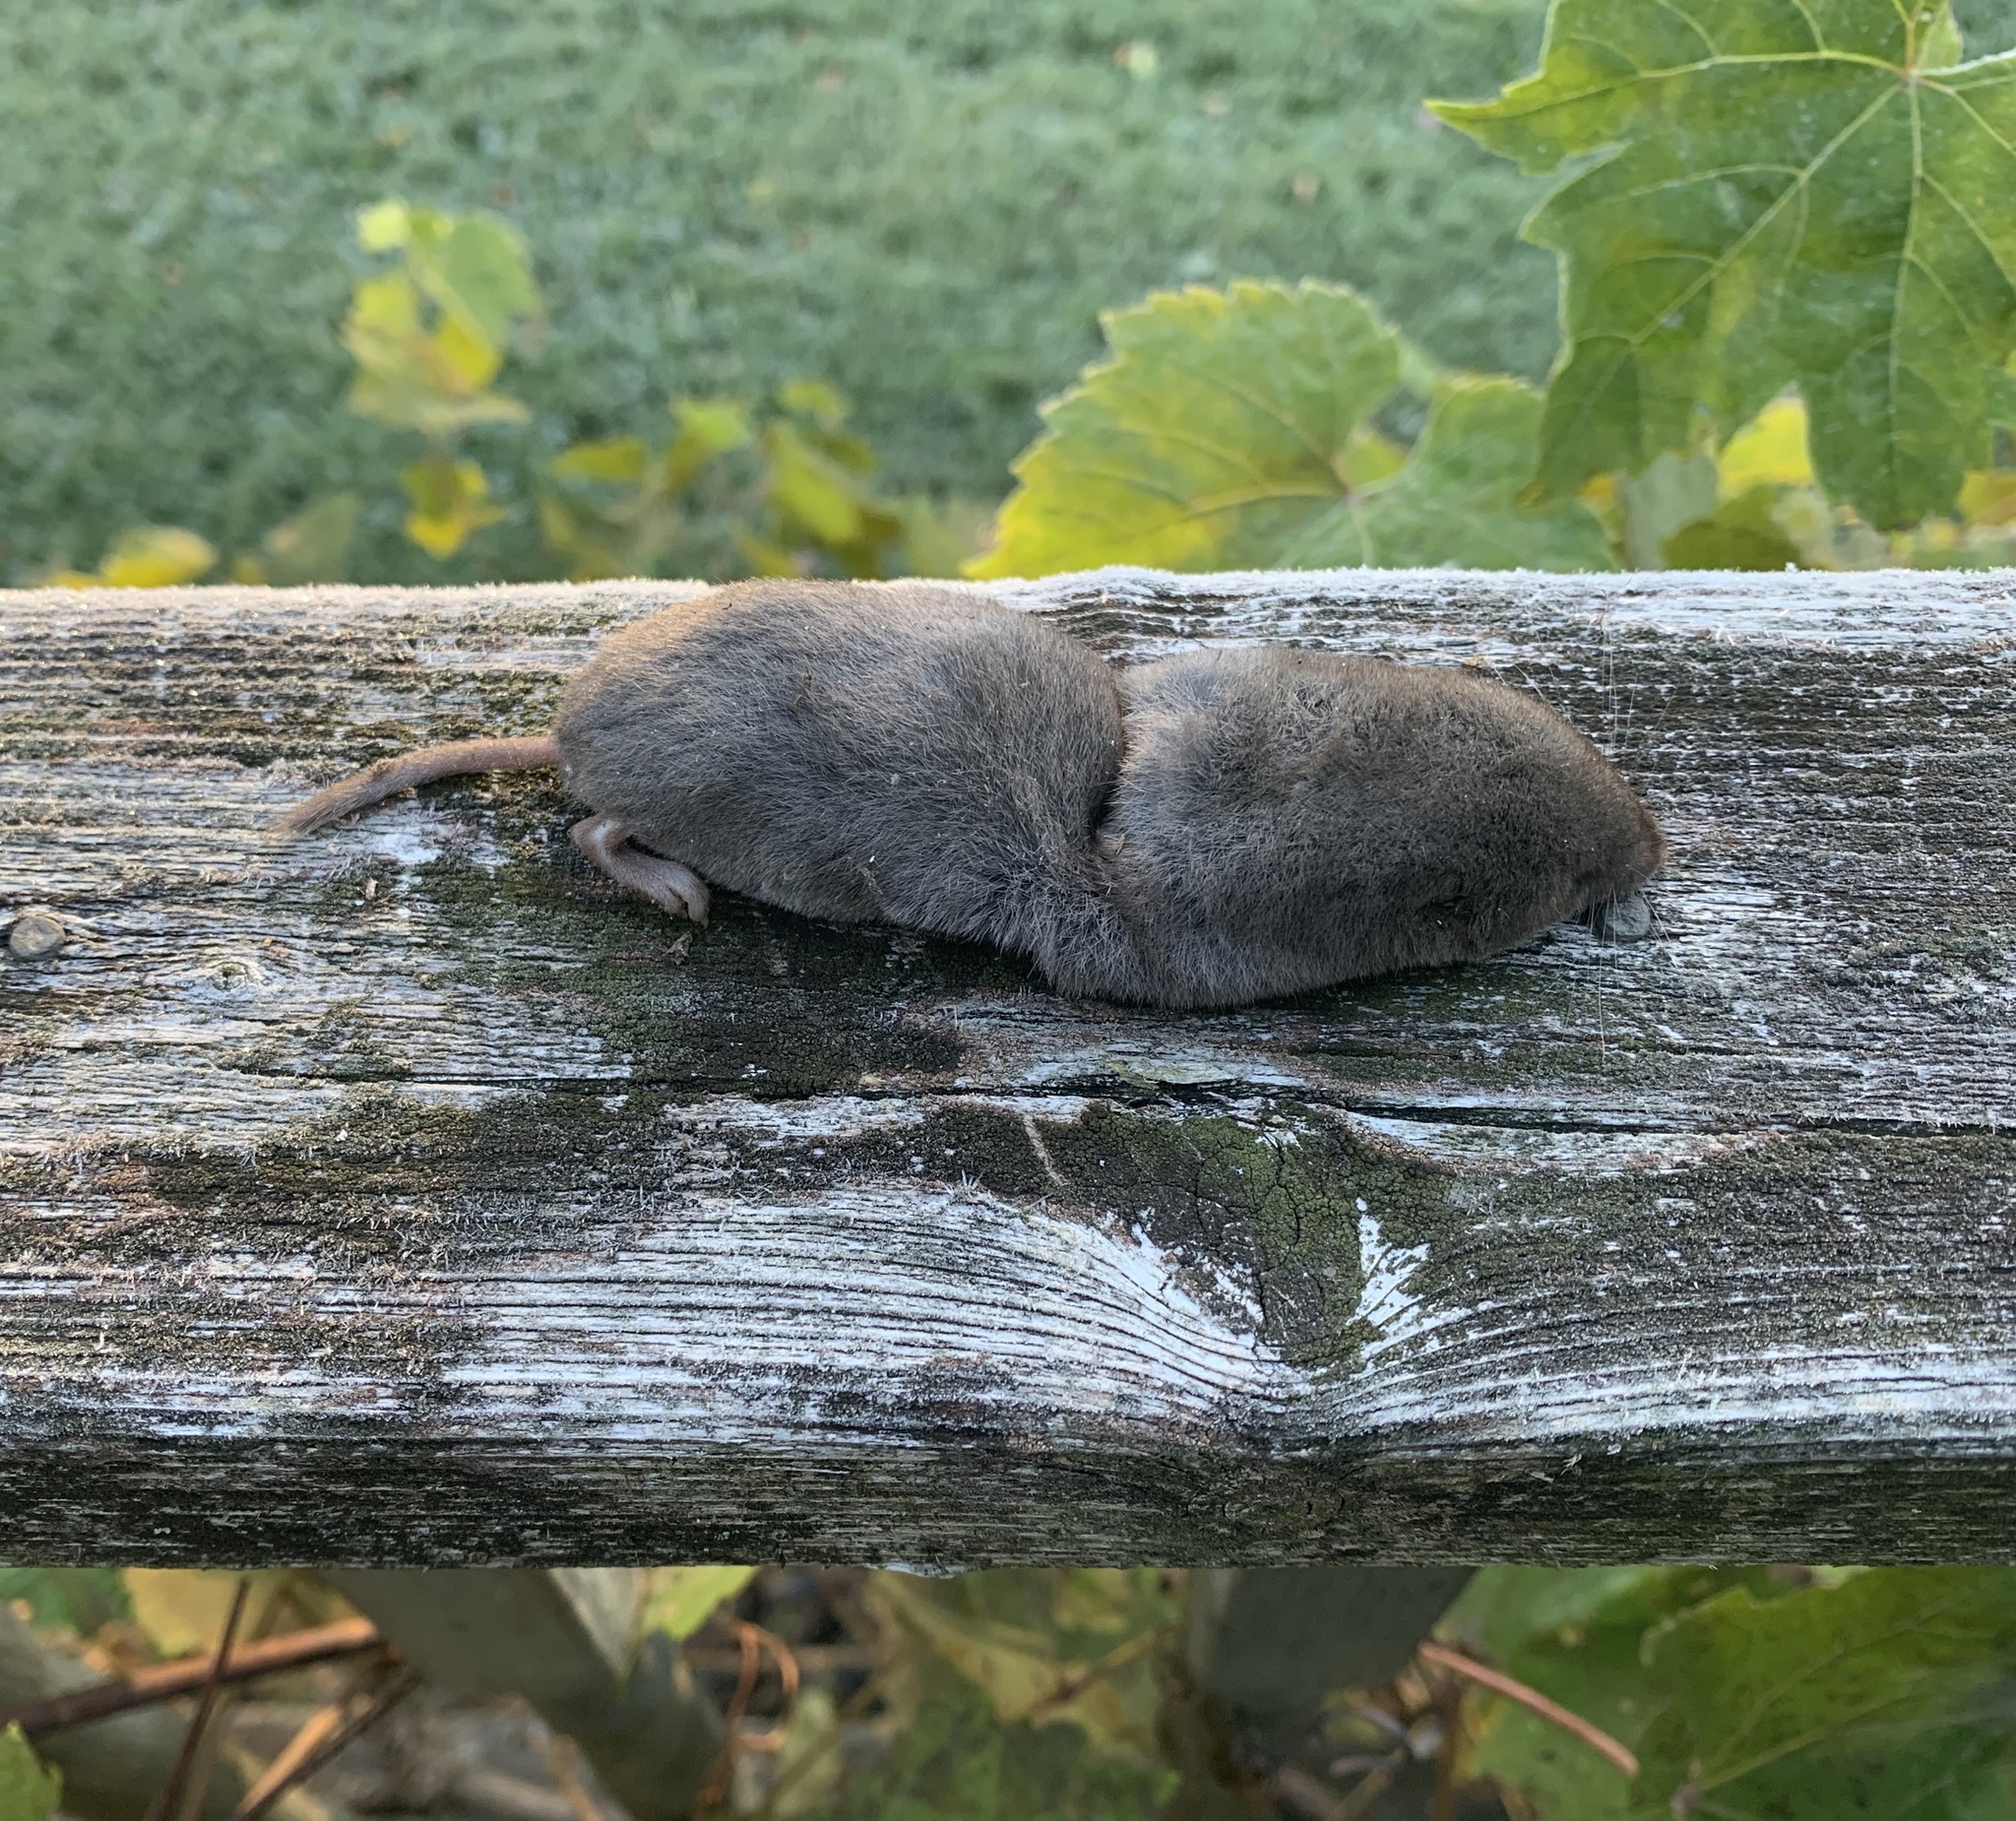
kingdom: Animalia
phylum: Chordata
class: Mammalia
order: Soricomorpha
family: Soricidae
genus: Blarina
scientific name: Blarina brevicauda
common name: Northern short-tailed shrew
